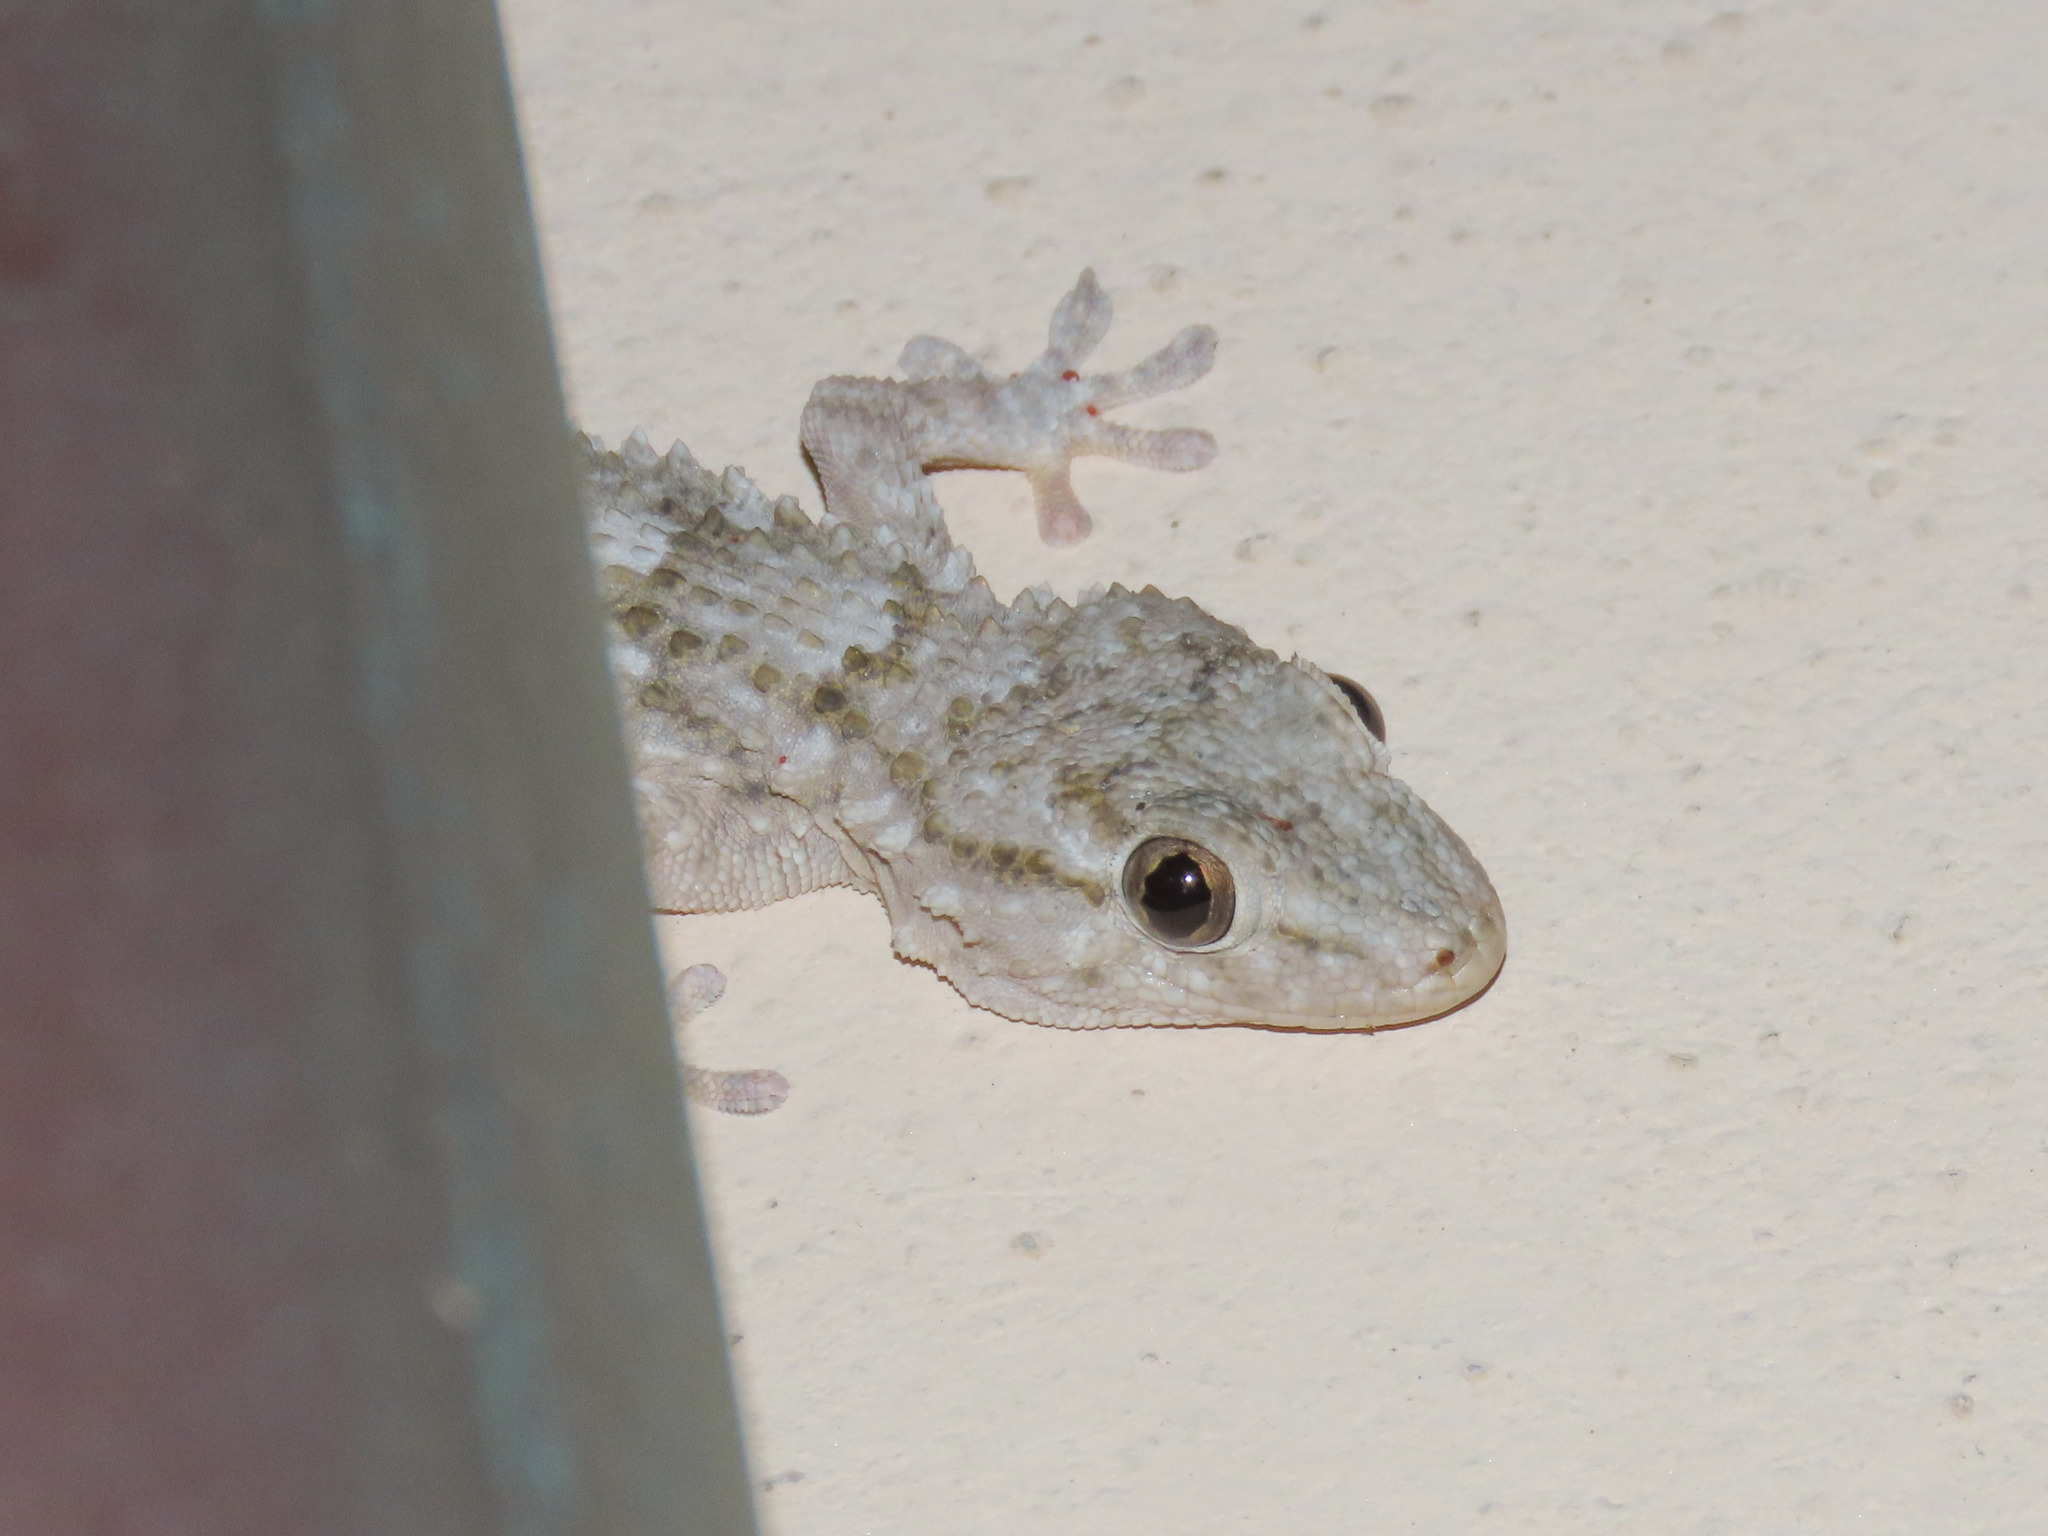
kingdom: Animalia
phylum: Chordata
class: Squamata
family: Phyllodactylidae
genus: Tarentola
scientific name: Tarentola mauritanica
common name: Moorish gecko
